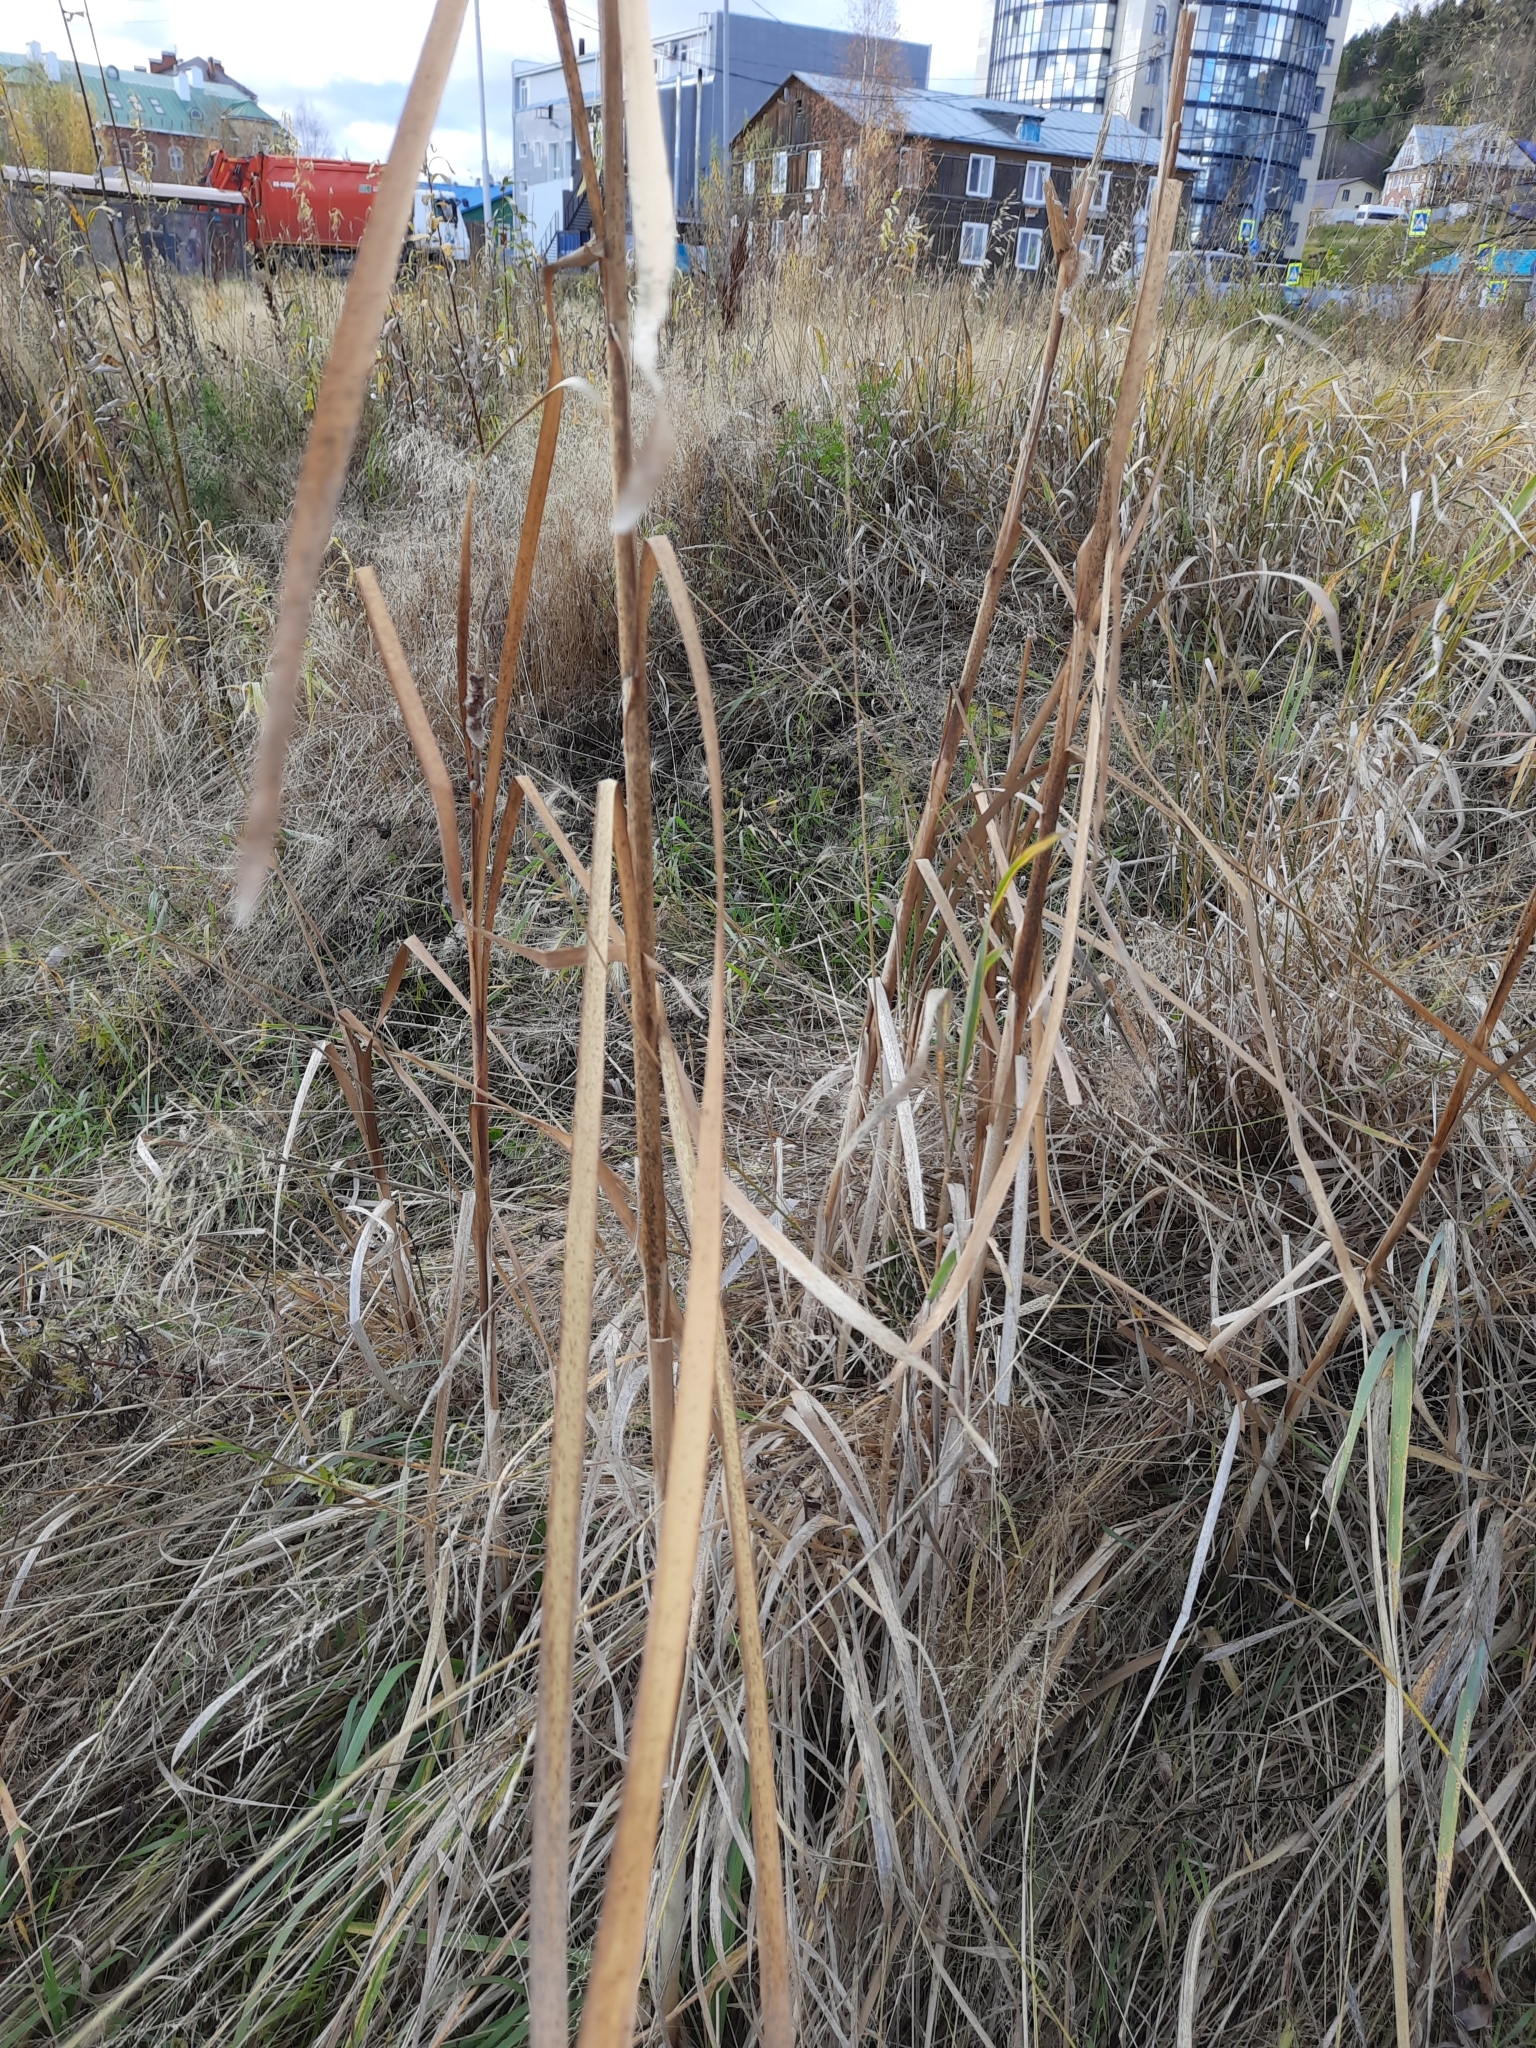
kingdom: Plantae
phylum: Tracheophyta
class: Liliopsida
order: Poales
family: Typhaceae
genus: Typha
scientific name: Typha latifolia
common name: Broadleaf cattail
